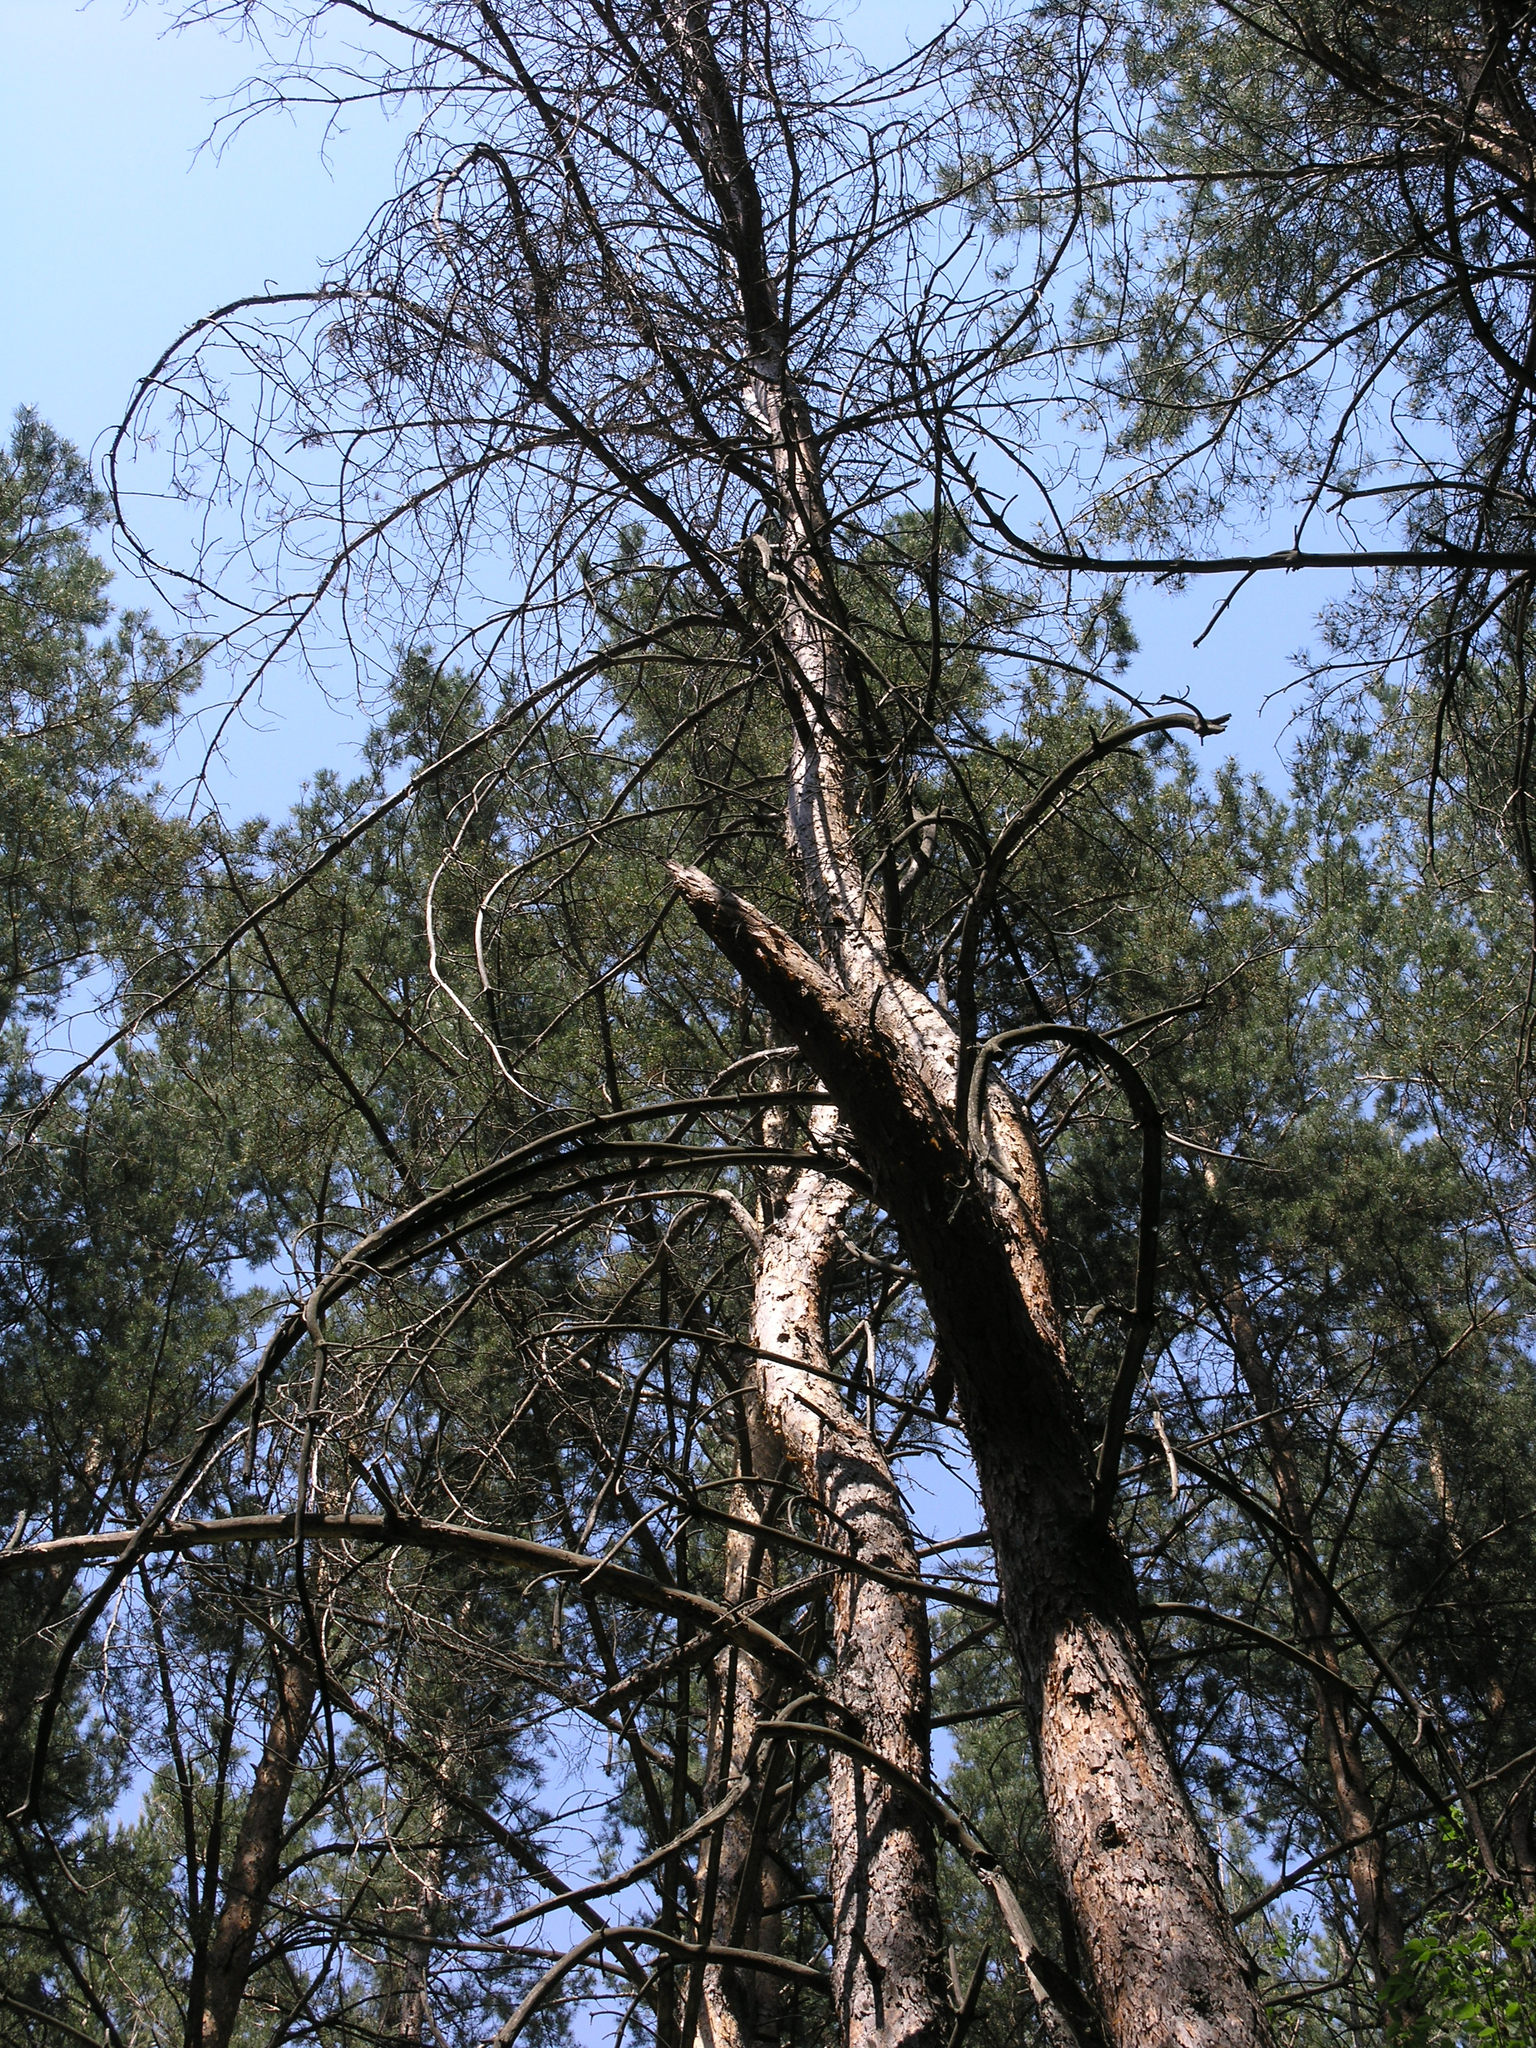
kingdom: Plantae
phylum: Tracheophyta
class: Pinopsida
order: Pinales
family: Pinaceae
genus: Pinus
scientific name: Pinus sylvestris
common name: Scots pine
